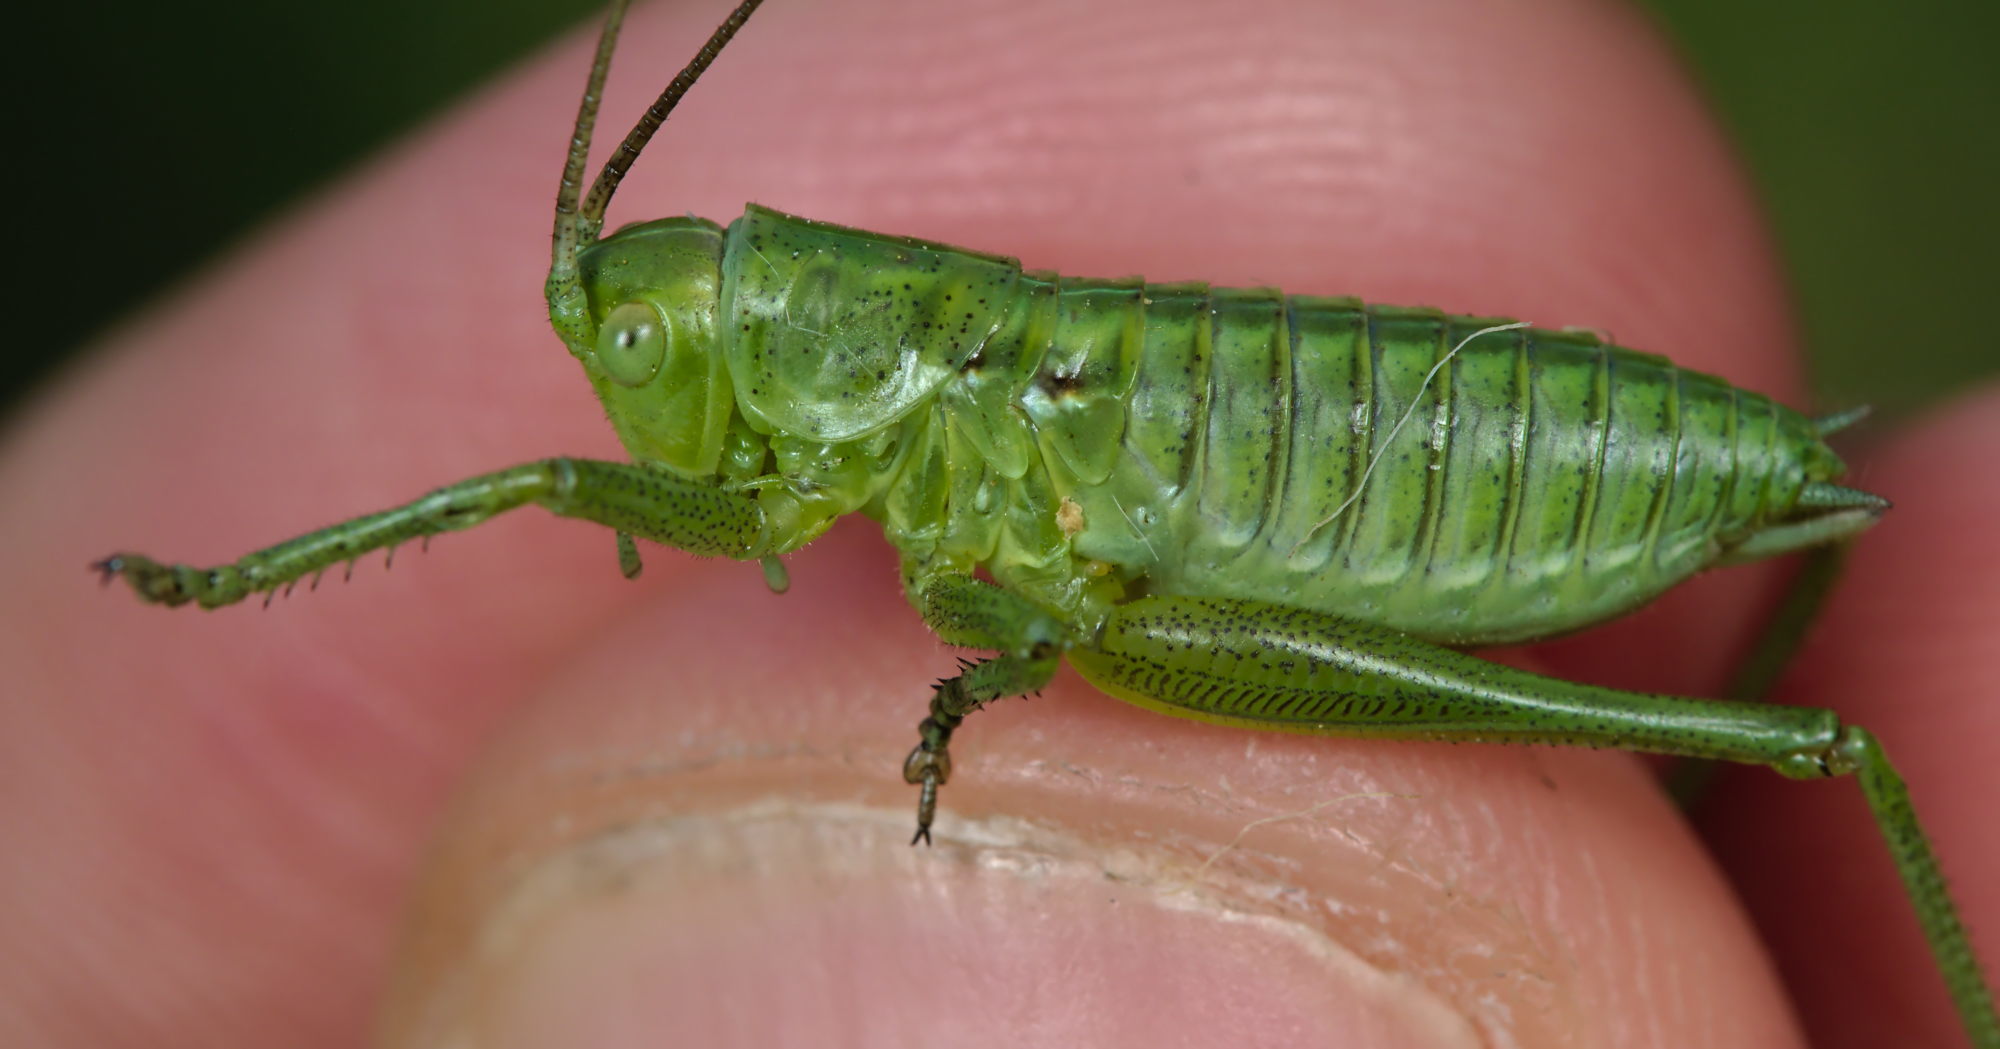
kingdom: Animalia
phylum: Arthropoda
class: Insecta
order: Orthoptera
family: Tettigoniidae
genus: Tettigonia
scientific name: Tettigonia viridissima
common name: Great green bush-cricket
